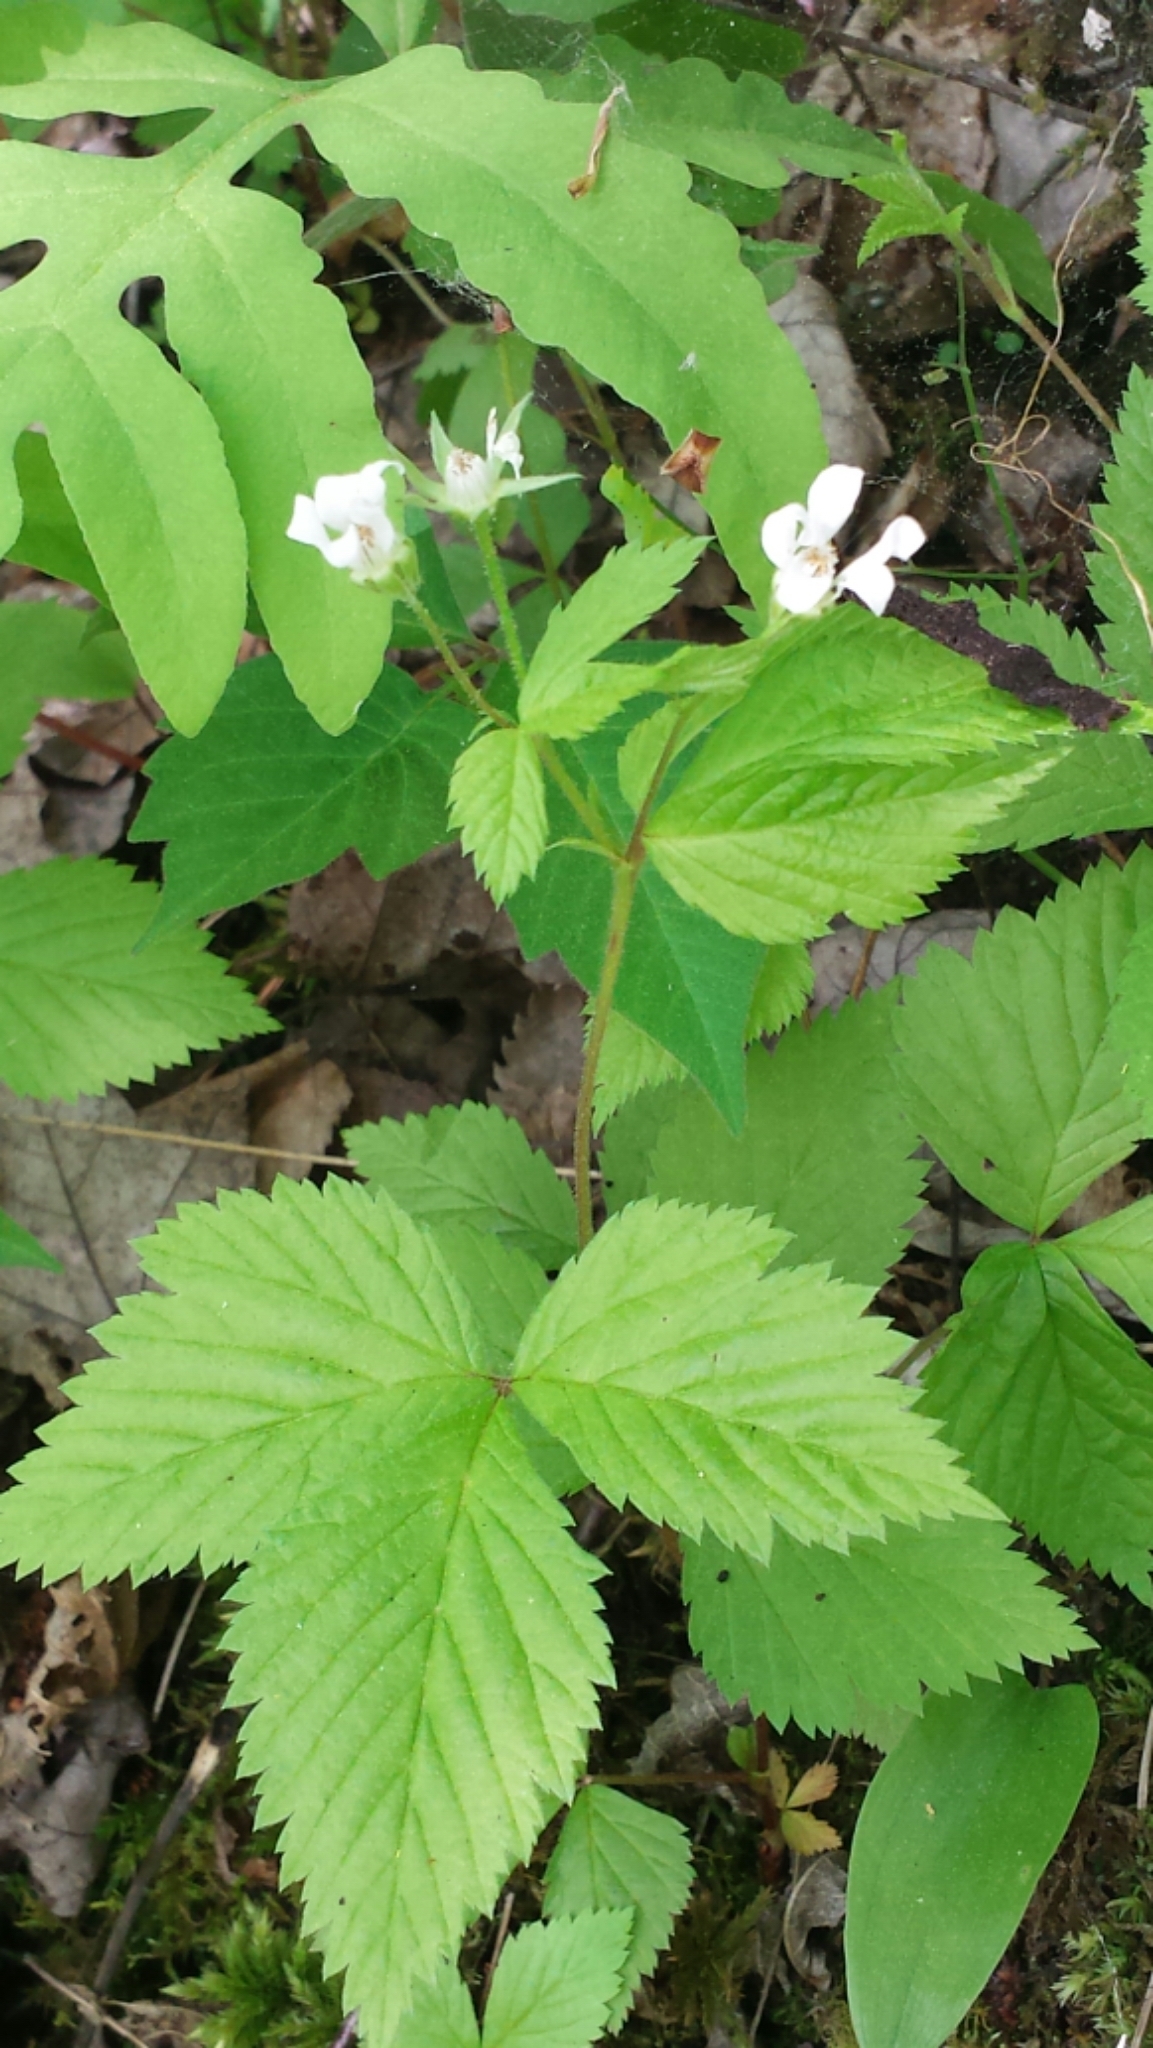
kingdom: Plantae
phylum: Tracheophyta
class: Magnoliopsida
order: Rosales
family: Rosaceae
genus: Rubus
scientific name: Rubus pubescens
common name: Dwarf raspberry
